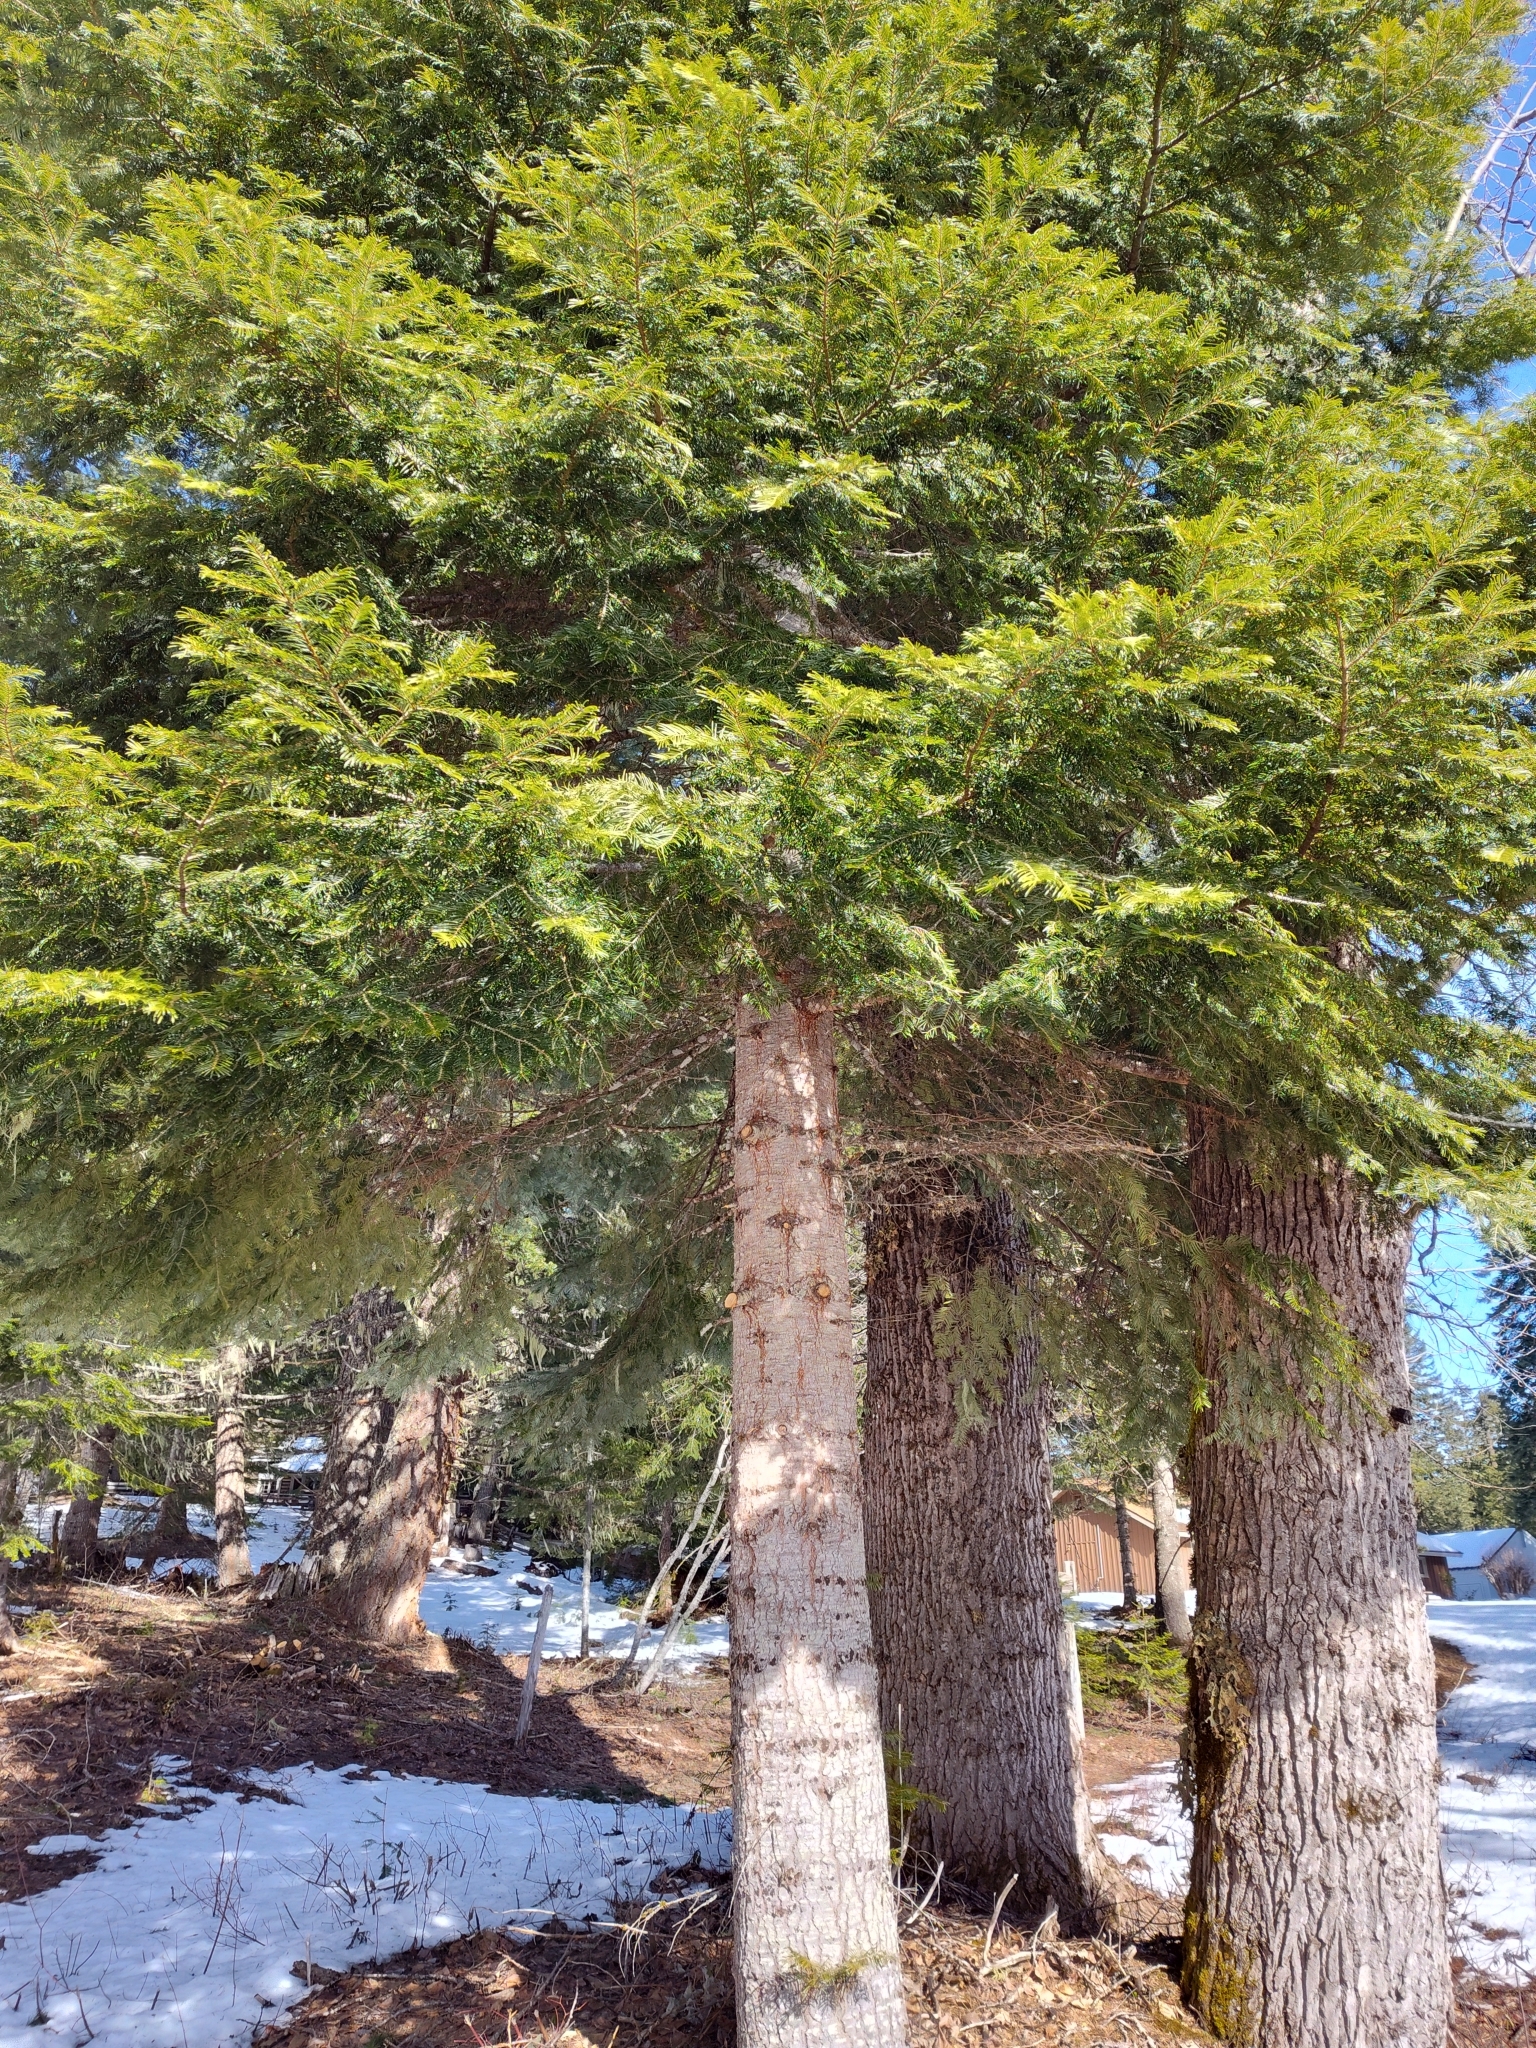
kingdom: Plantae
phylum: Tracheophyta
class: Pinopsida
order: Pinales
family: Pinaceae
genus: Abies
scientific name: Abies grandis
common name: Giant fir
